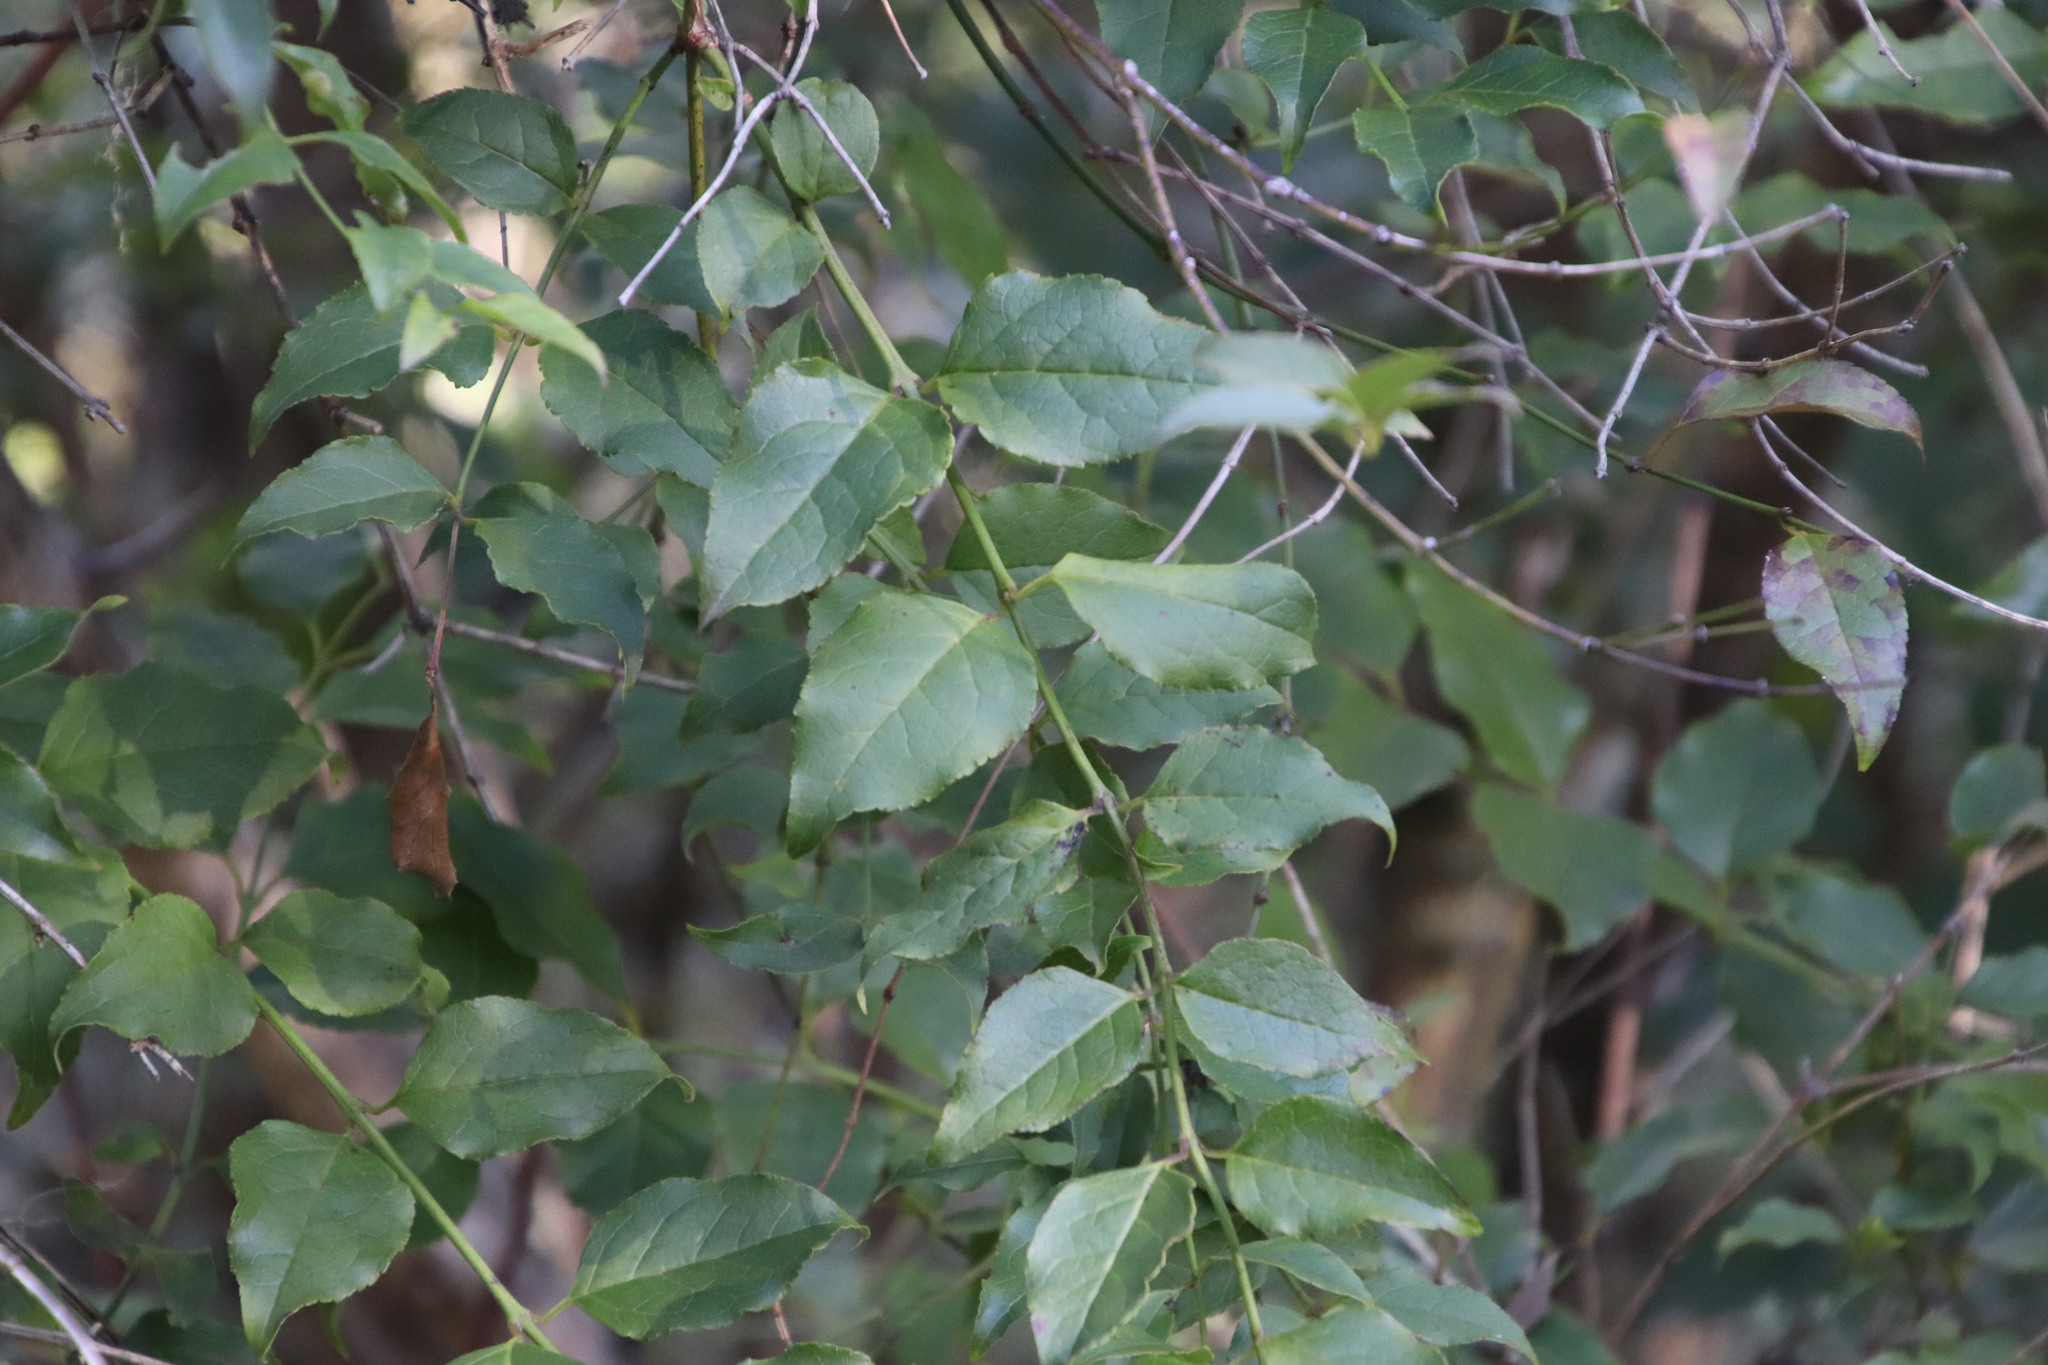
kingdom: Plantae
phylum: Tracheophyta
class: Magnoliopsida
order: Lamiales
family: Stilbaceae
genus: Halleria
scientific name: Halleria lucida
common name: Tree fuschia
